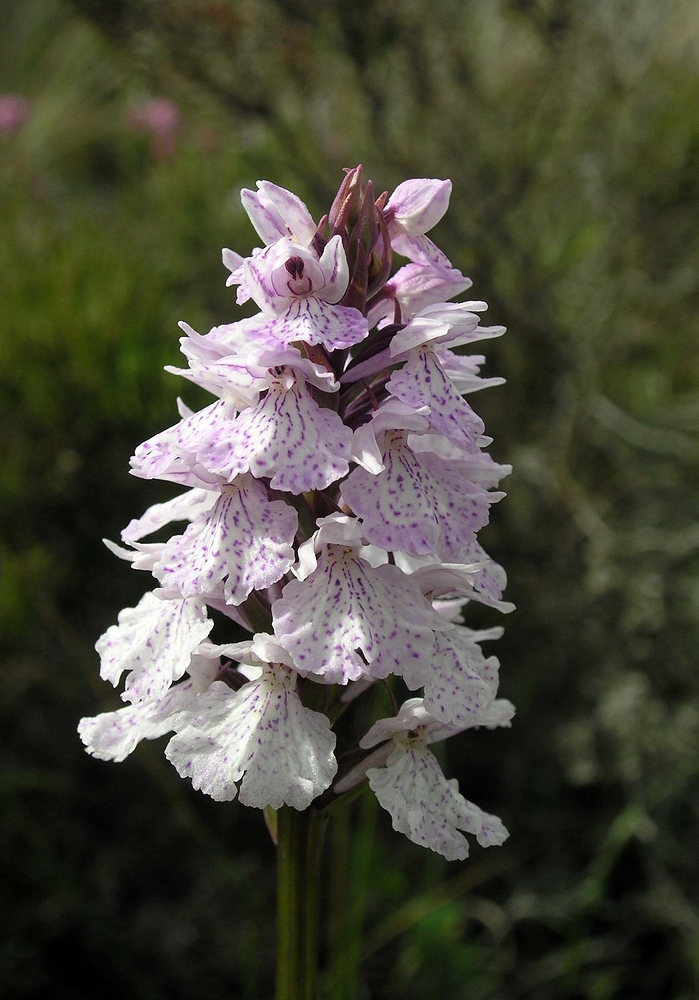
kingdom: Plantae
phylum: Tracheophyta
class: Liliopsida
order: Asparagales
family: Orchidaceae
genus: Dactylorhiza
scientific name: Dactylorhiza maculata
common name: Heath spotted-orchid
